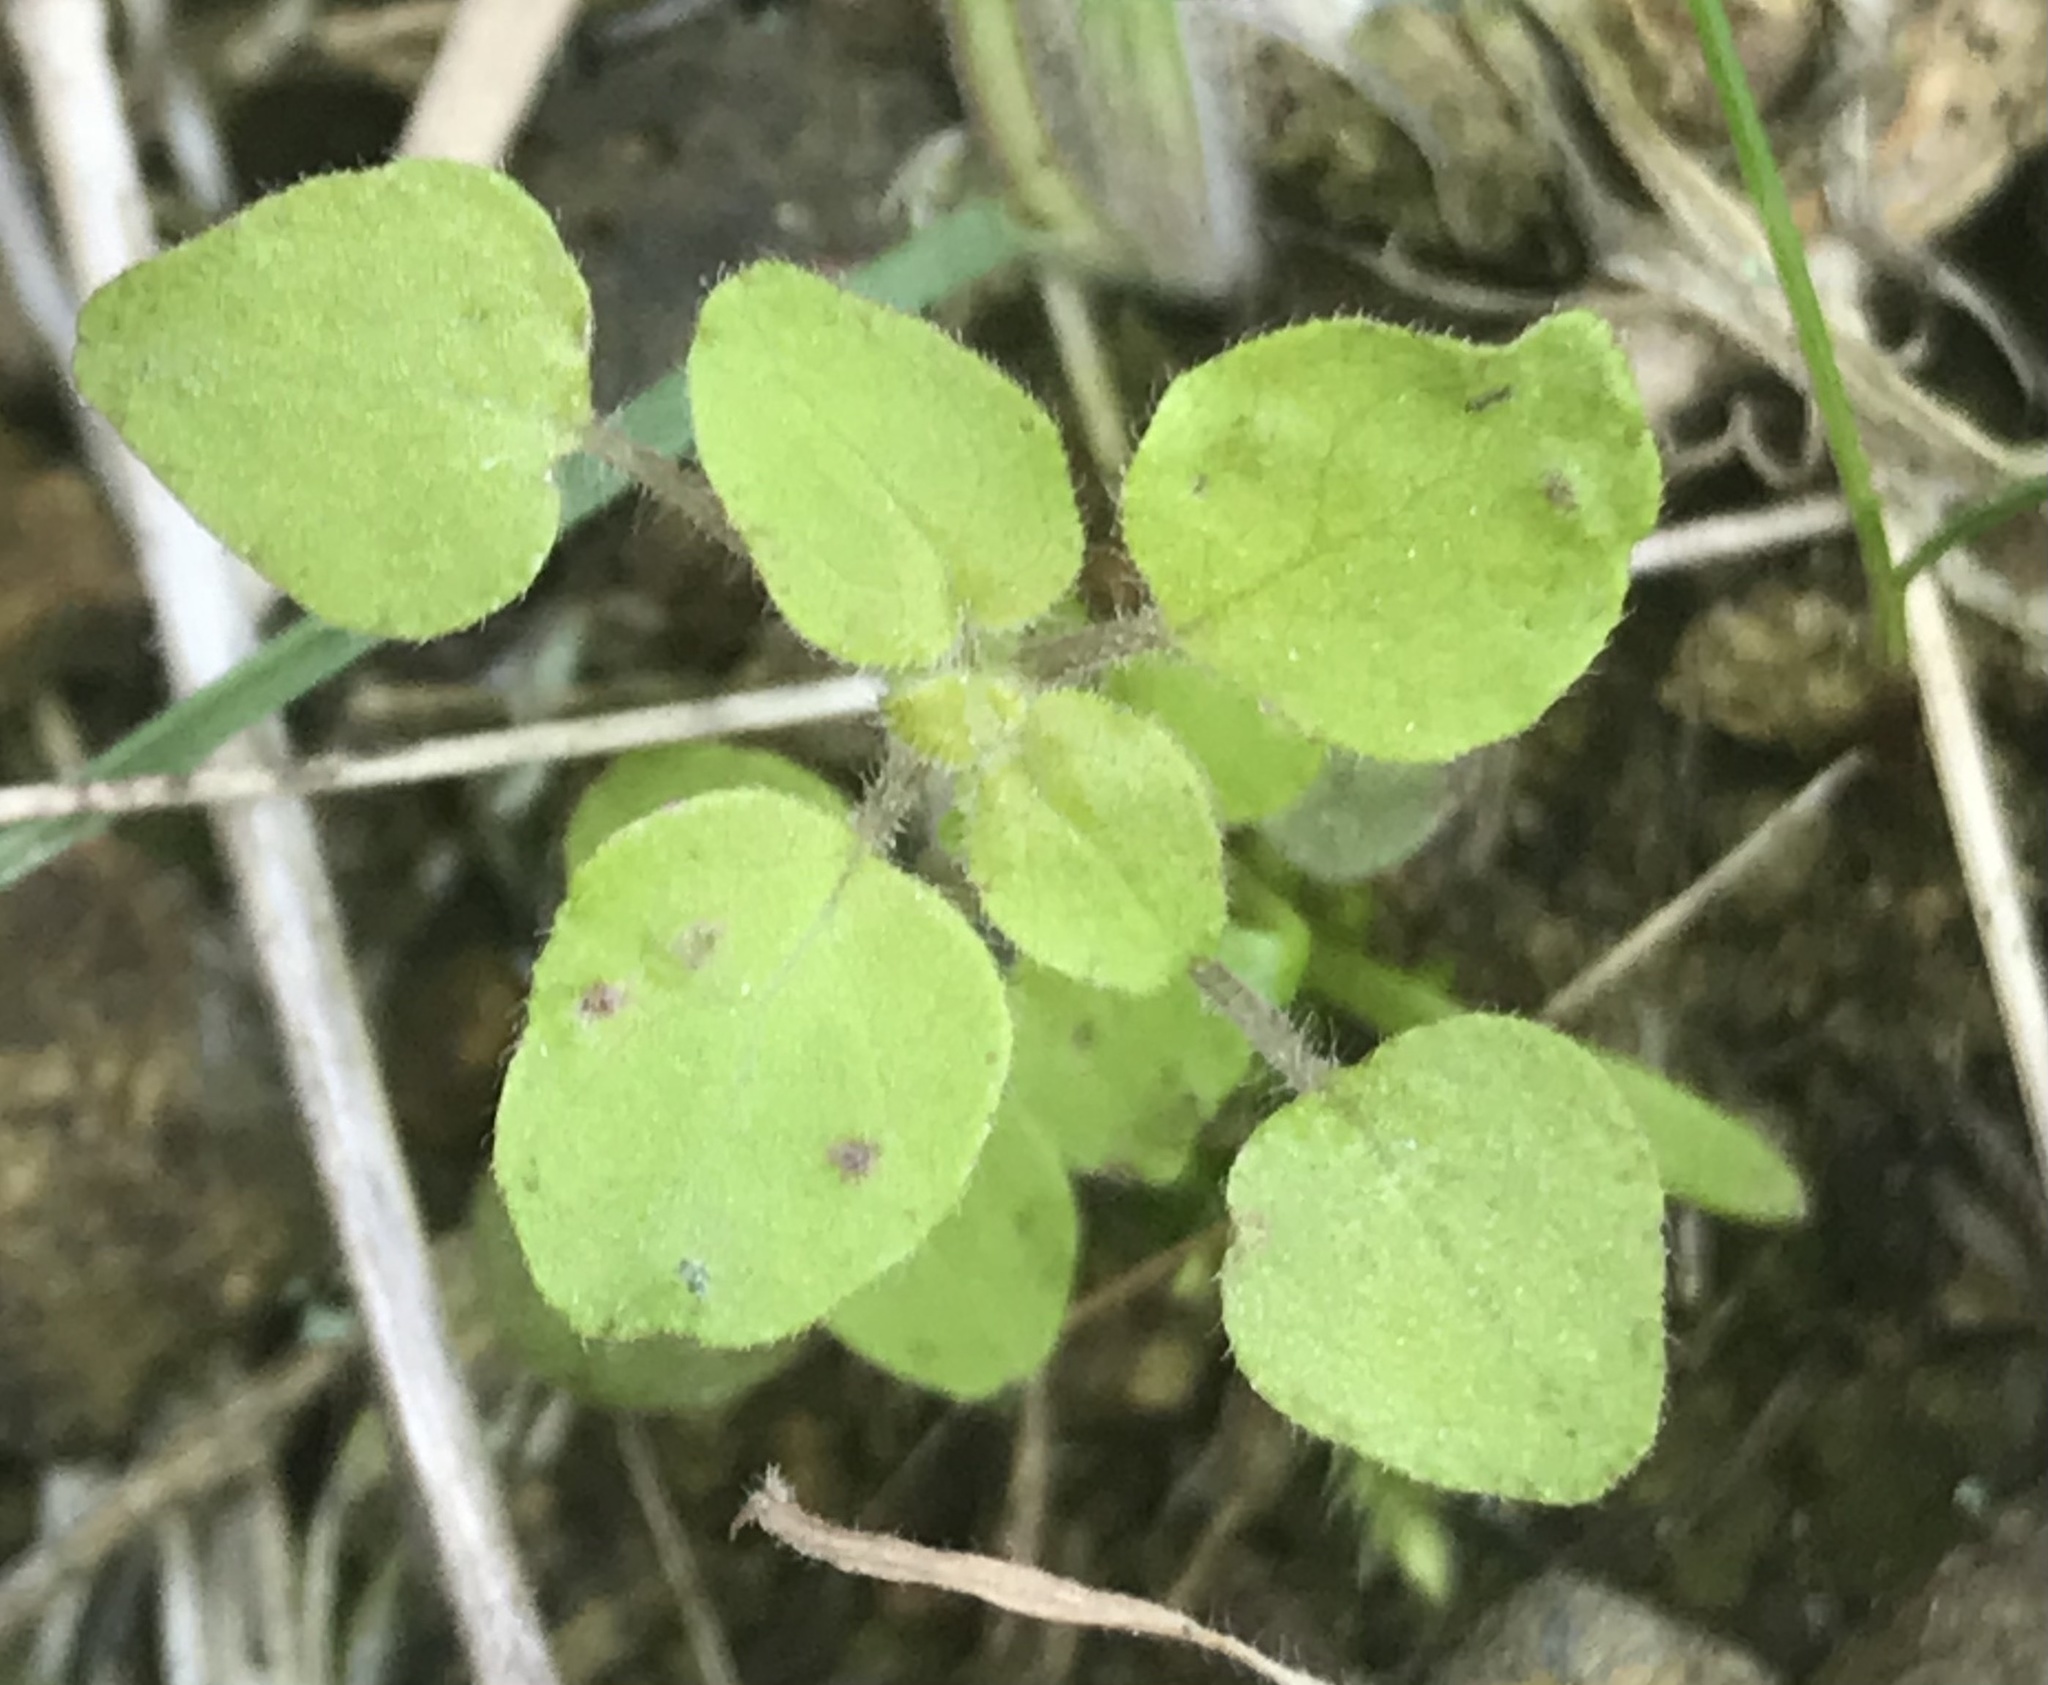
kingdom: Plantae
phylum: Tracheophyta
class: Magnoliopsida
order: Rosales
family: Urticaceae
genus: Parietaria
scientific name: Parietaria hespera
